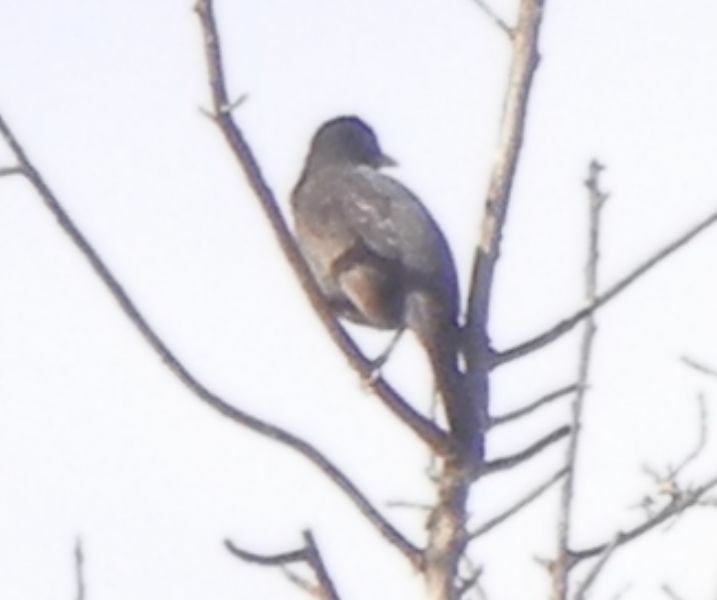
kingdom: Animalia
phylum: Chordata
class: Aves
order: Passeriformes
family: Turdidae
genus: Turdus
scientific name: Turdus merula
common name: Common blackbird
